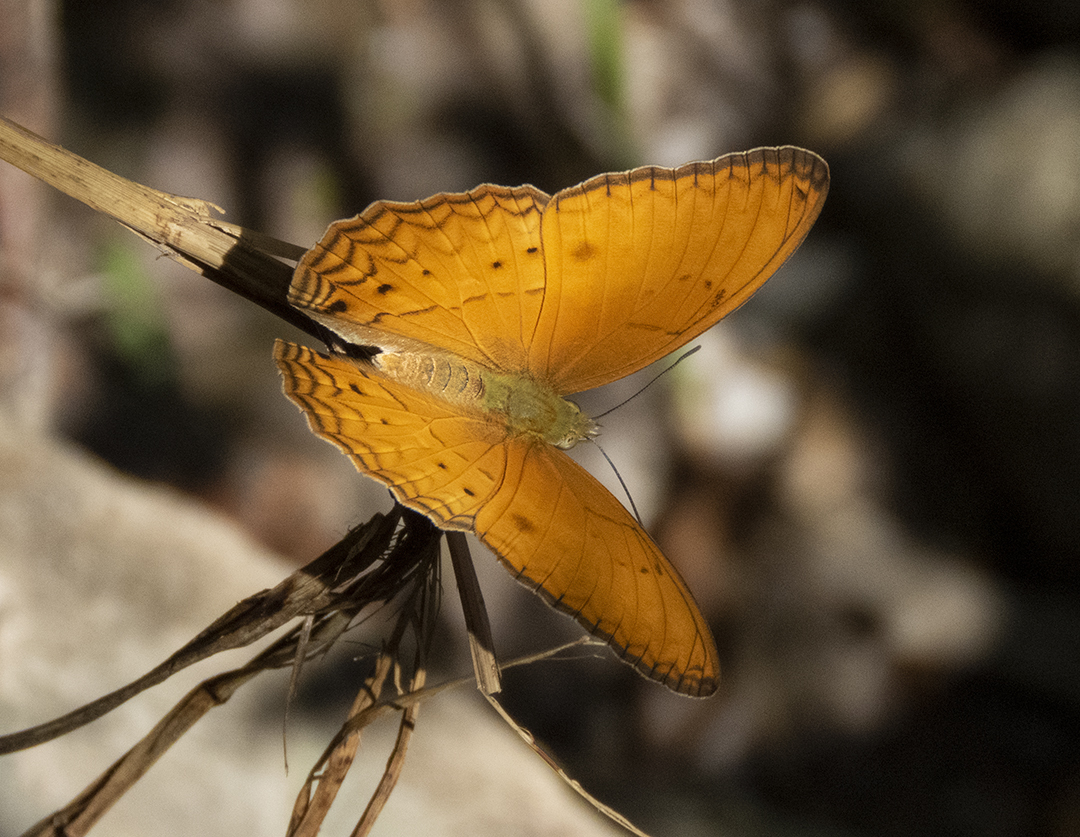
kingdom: Animalia
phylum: Arthropoda
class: Insecta
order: Lepidoptera
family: Nymphalidae
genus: Cirrochroa
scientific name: Cirrochroa tyche
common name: Common yeoman
